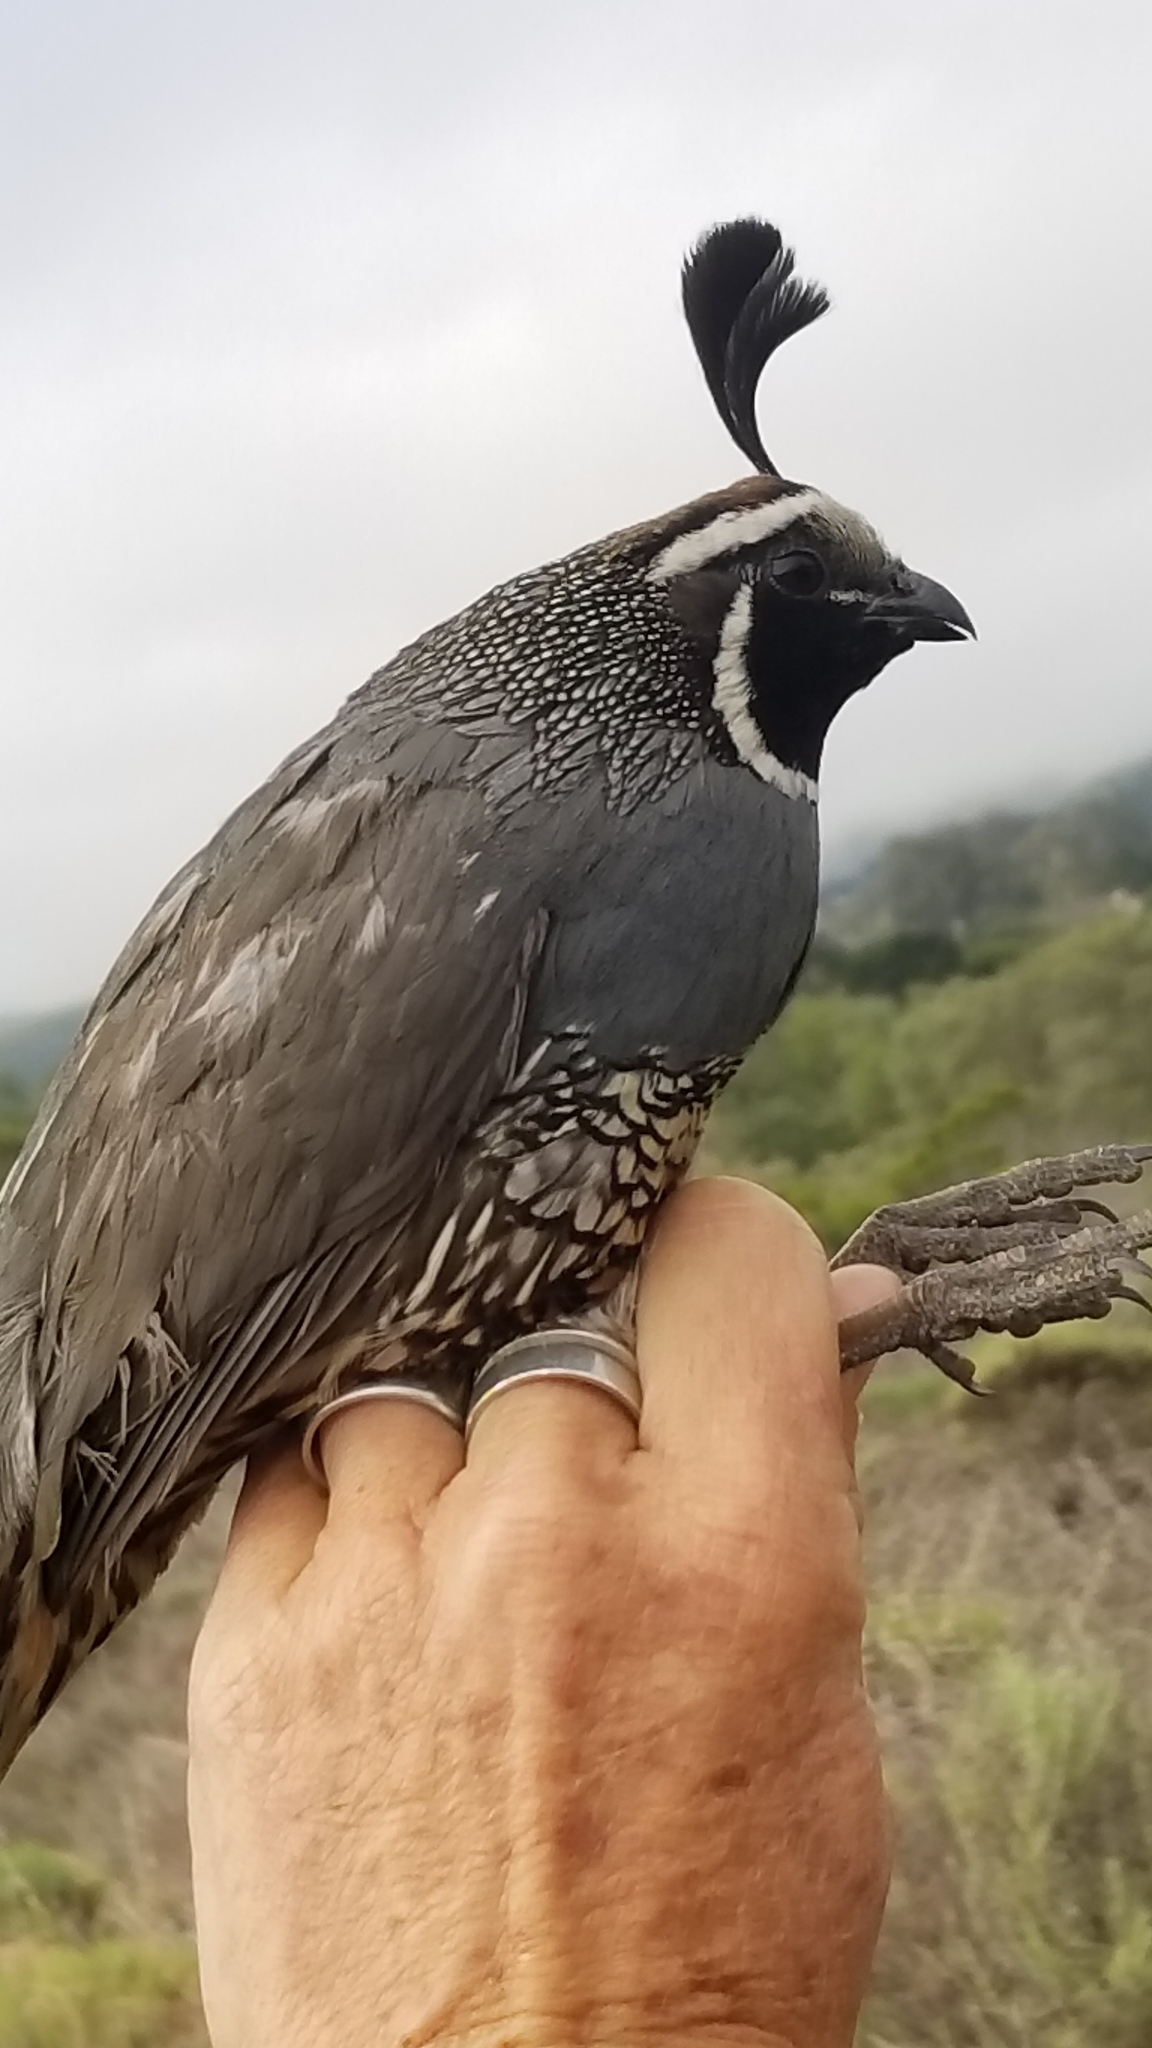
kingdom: Animalia
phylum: Chordata
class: Aves
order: Galliformes
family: Odontophoridae
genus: Callipepla
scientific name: Callipepla californica
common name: California quail
